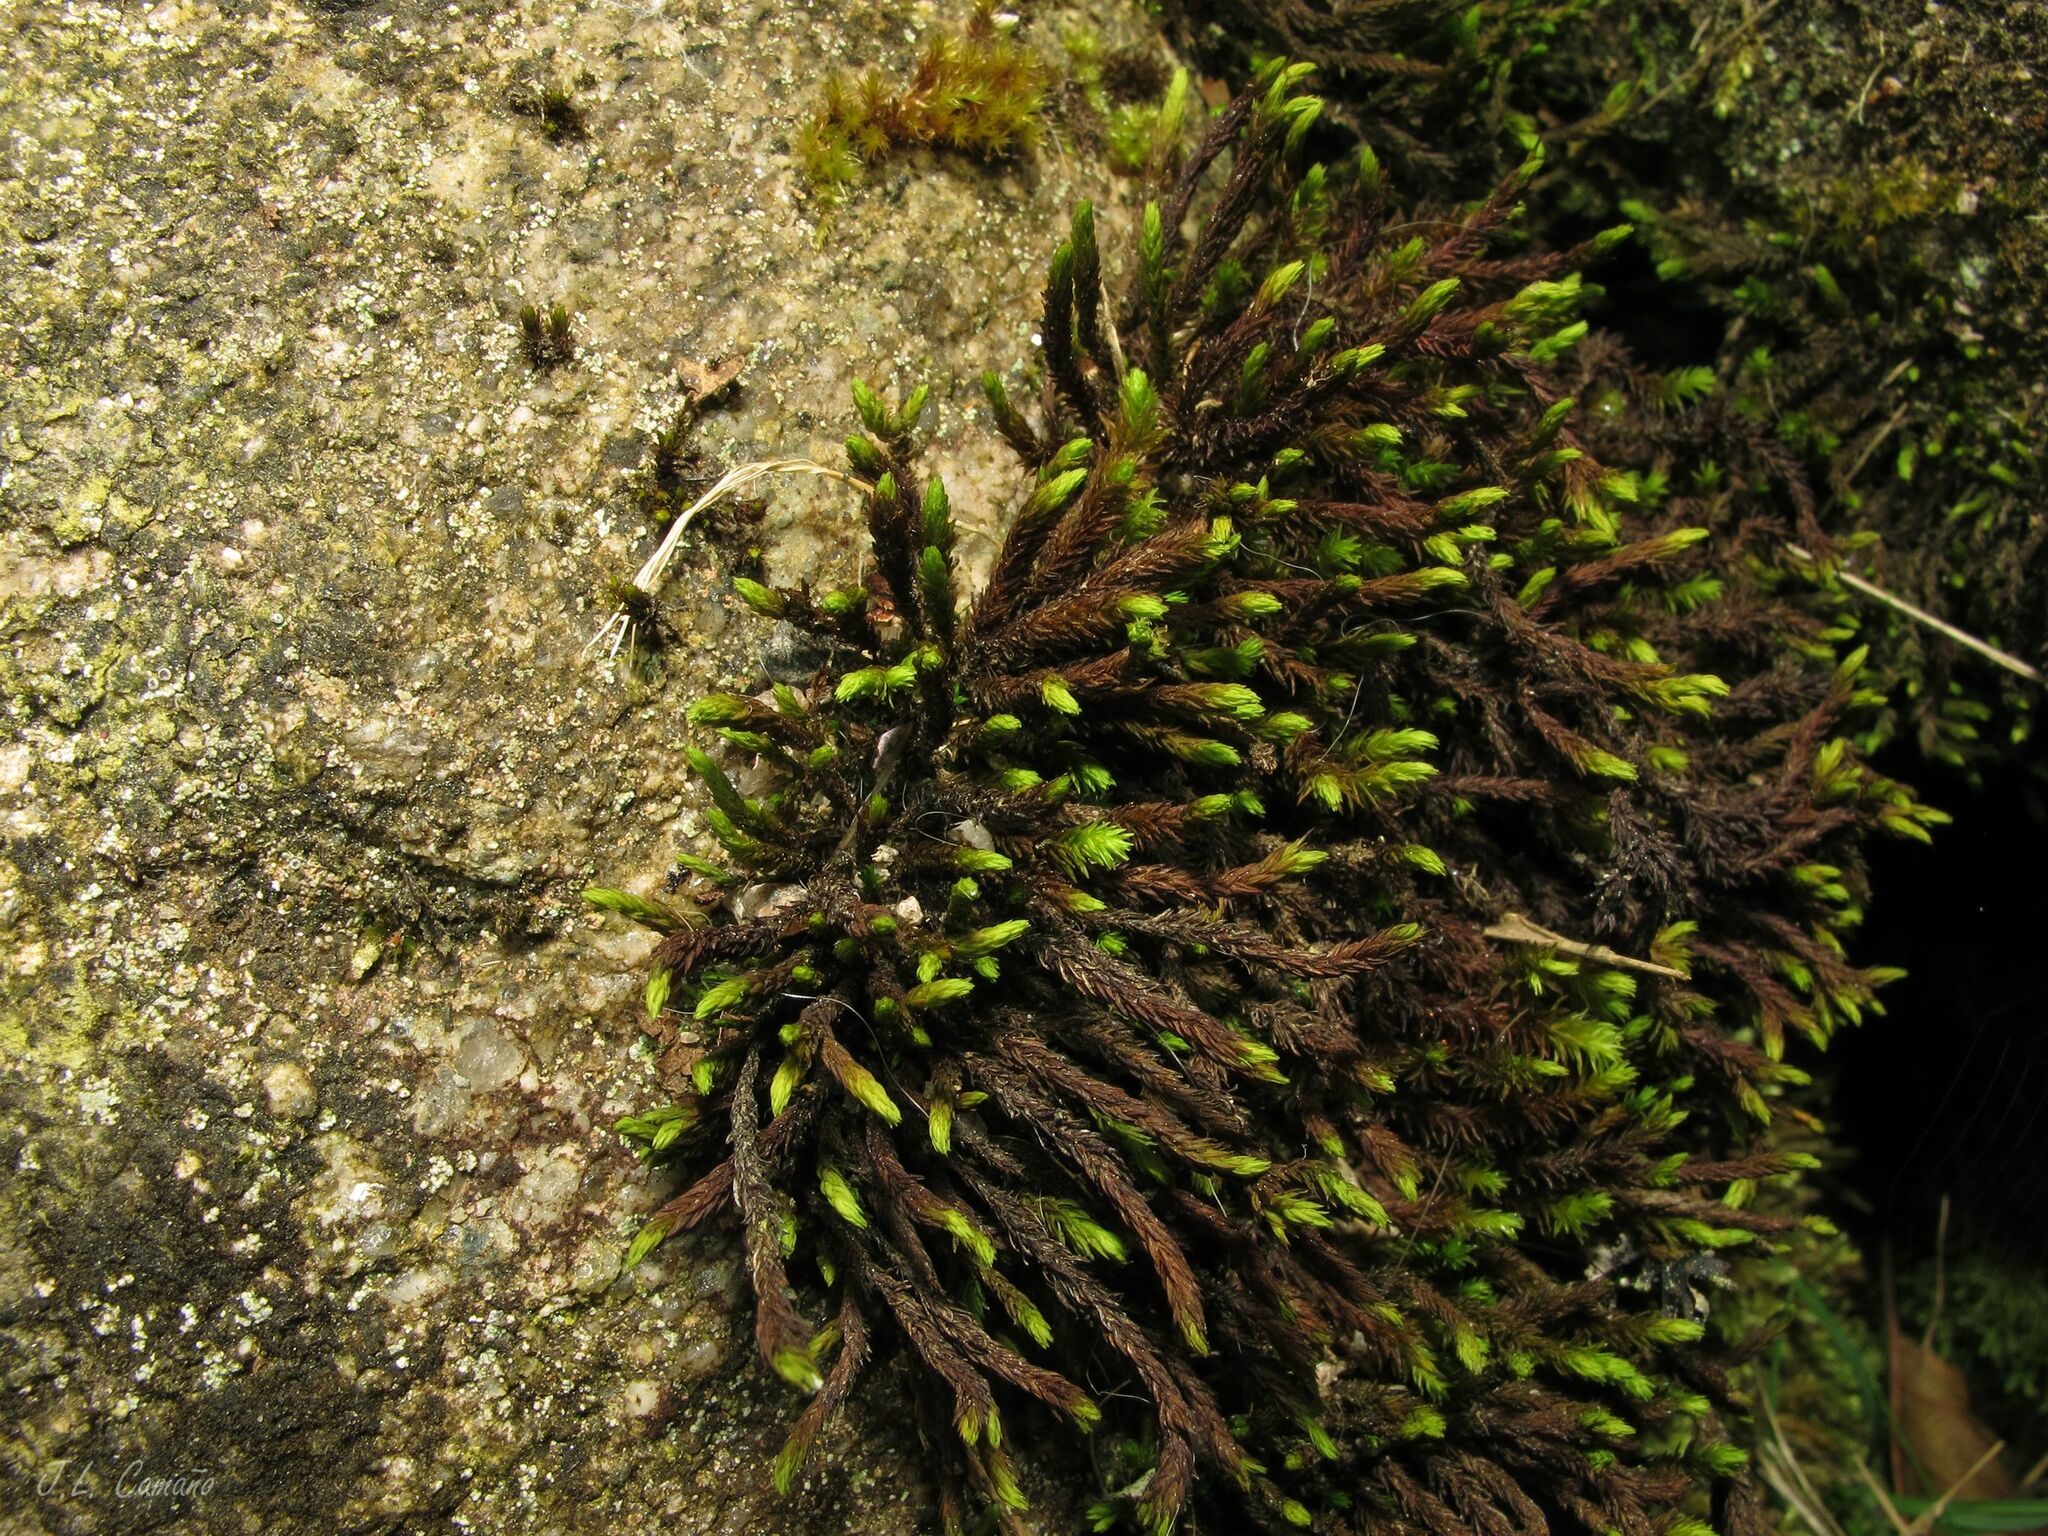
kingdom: Plantae
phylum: Bryophyta
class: Bryopsida
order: Grimmiales
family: Grimmiaceae
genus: Codriophorus
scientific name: Codriophorus acicularis
